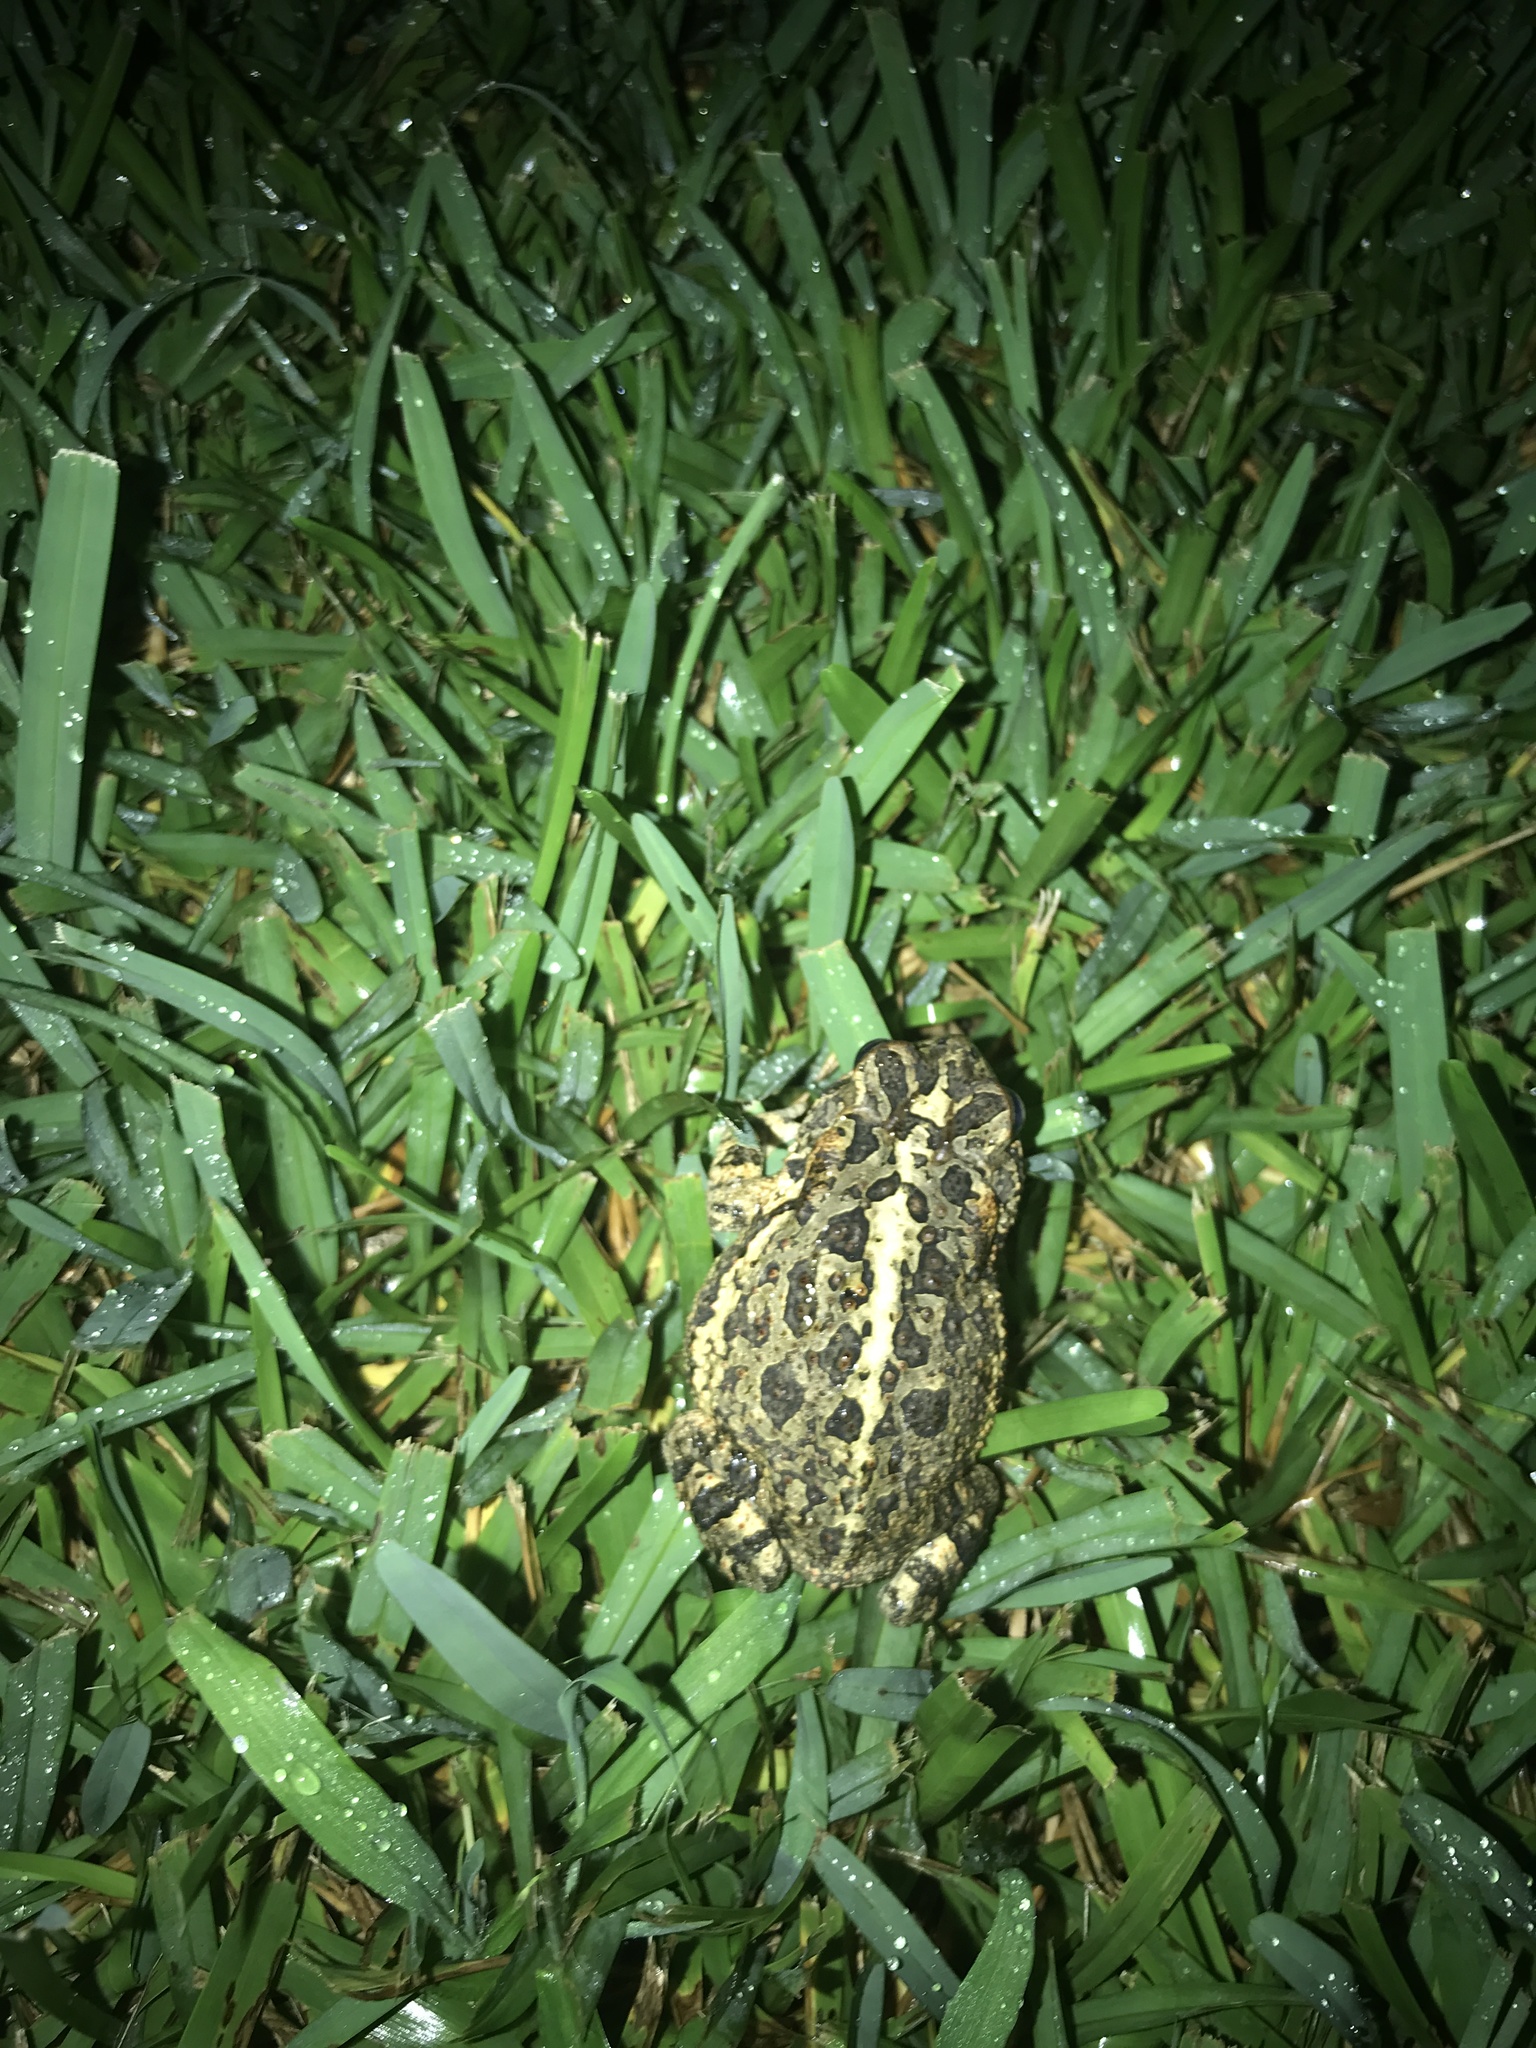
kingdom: Animalia
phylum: Chordata
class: Amphibia
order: Anura
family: Bufonidae
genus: Anaxyrus
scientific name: Anaxyrus terrestris
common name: Southern toad
